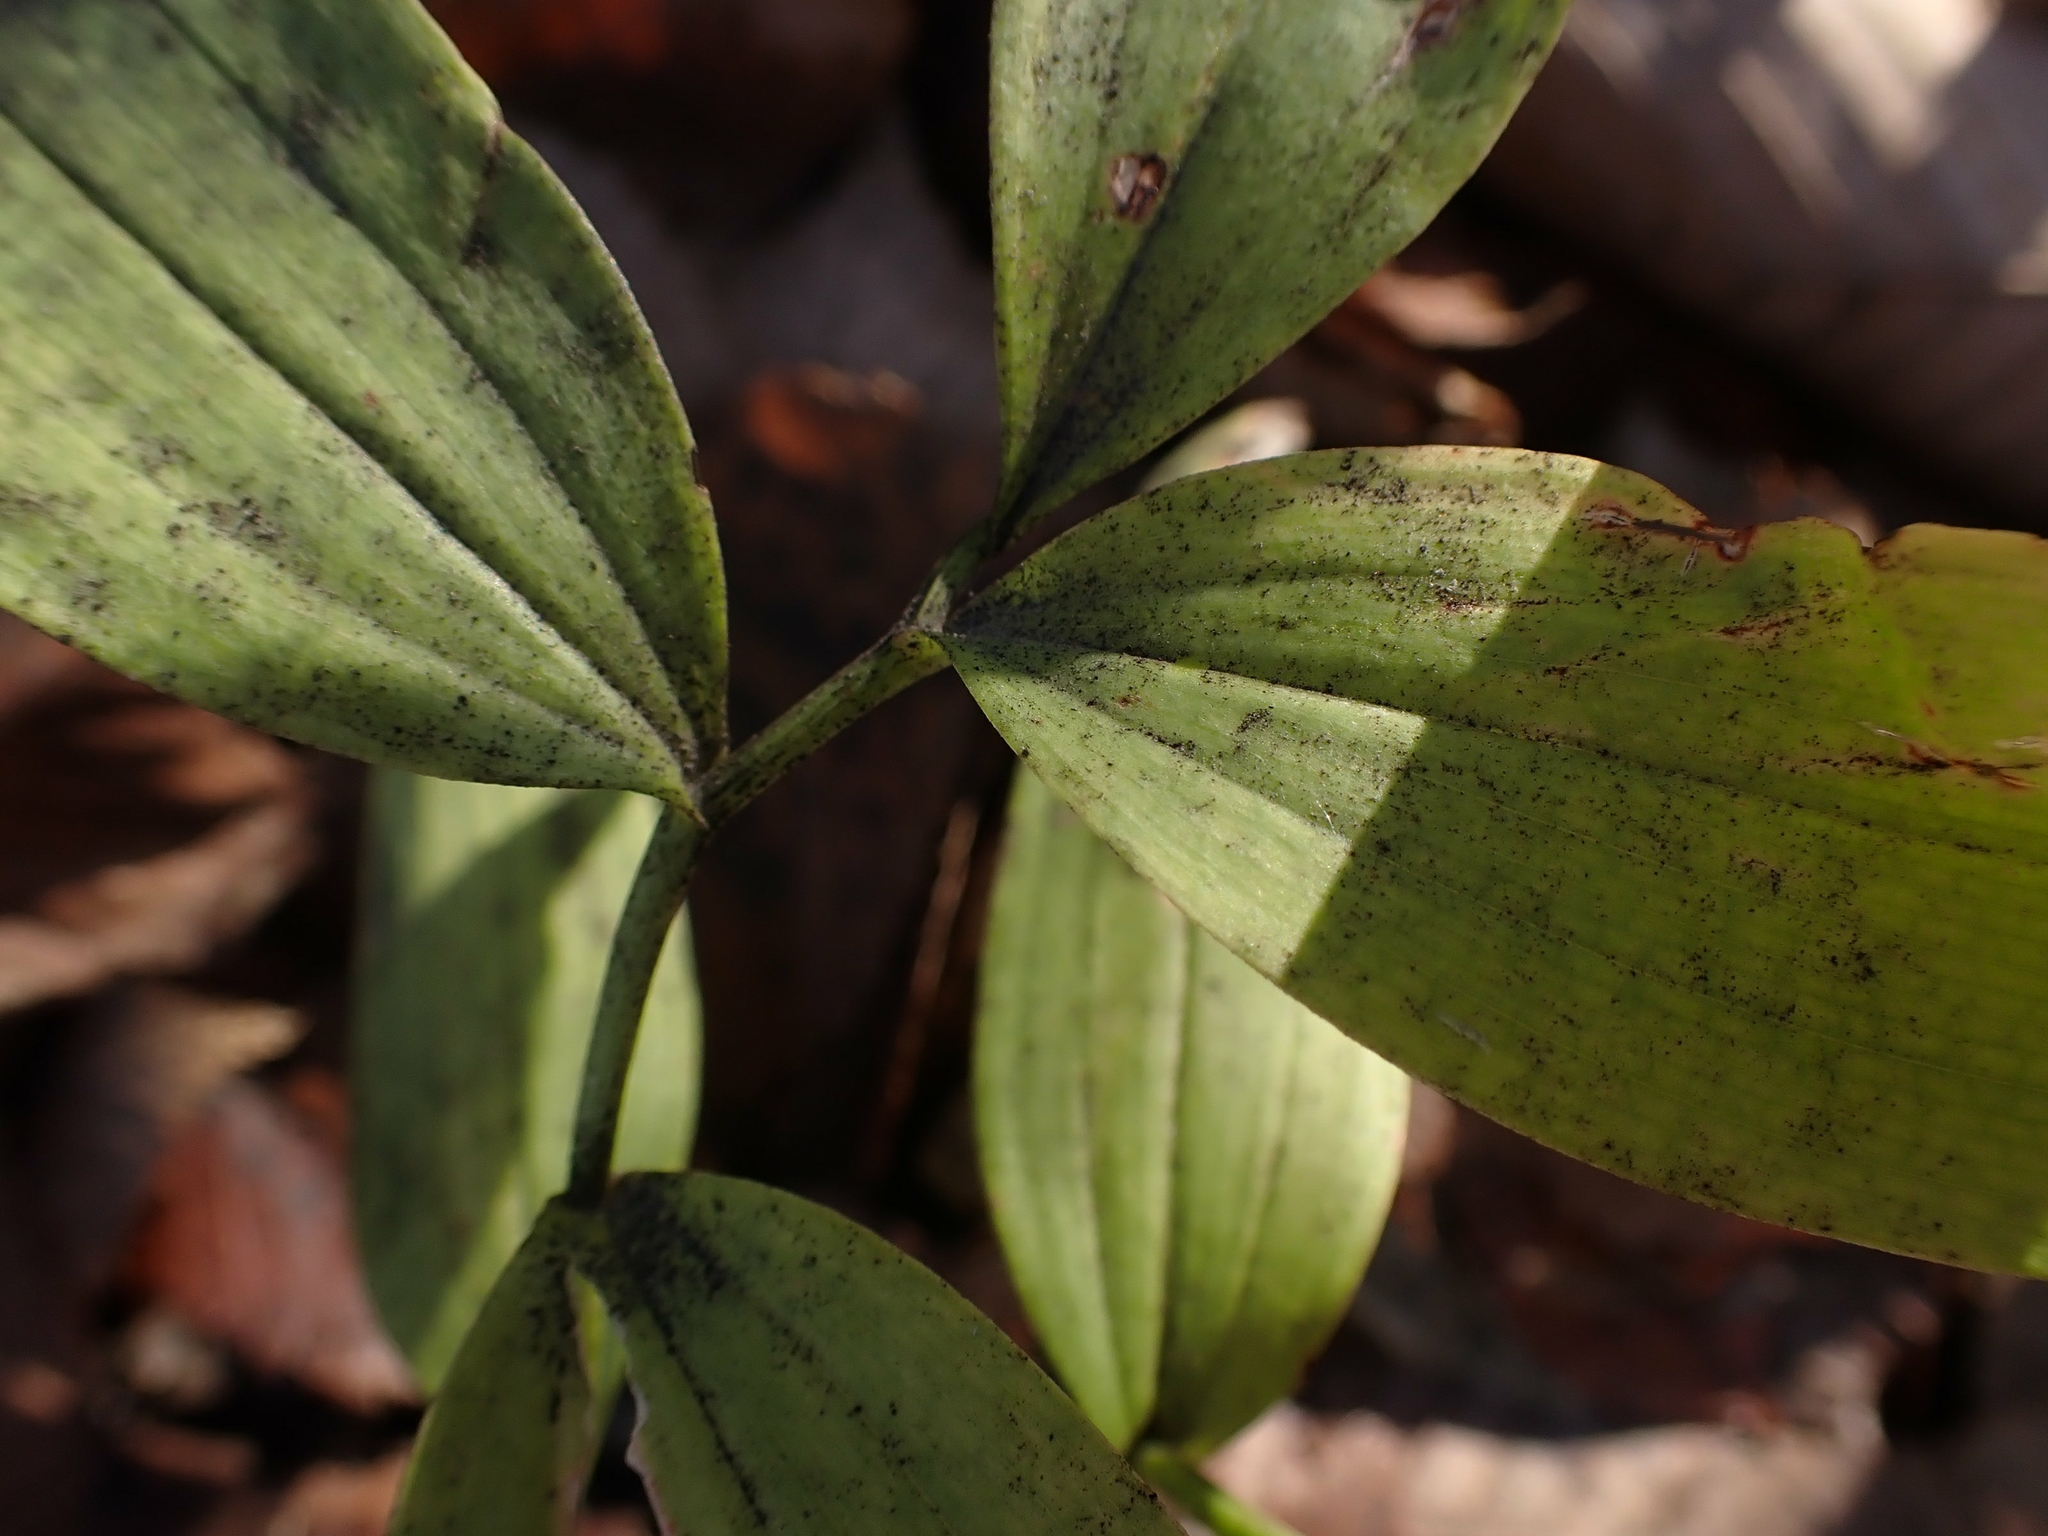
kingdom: Plantae
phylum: Tracheophyta
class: Liliopsida
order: Asparagales
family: Asparagaceae
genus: Maianthemum
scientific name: Maianthemum stellatum
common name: Little false solomon's seal
